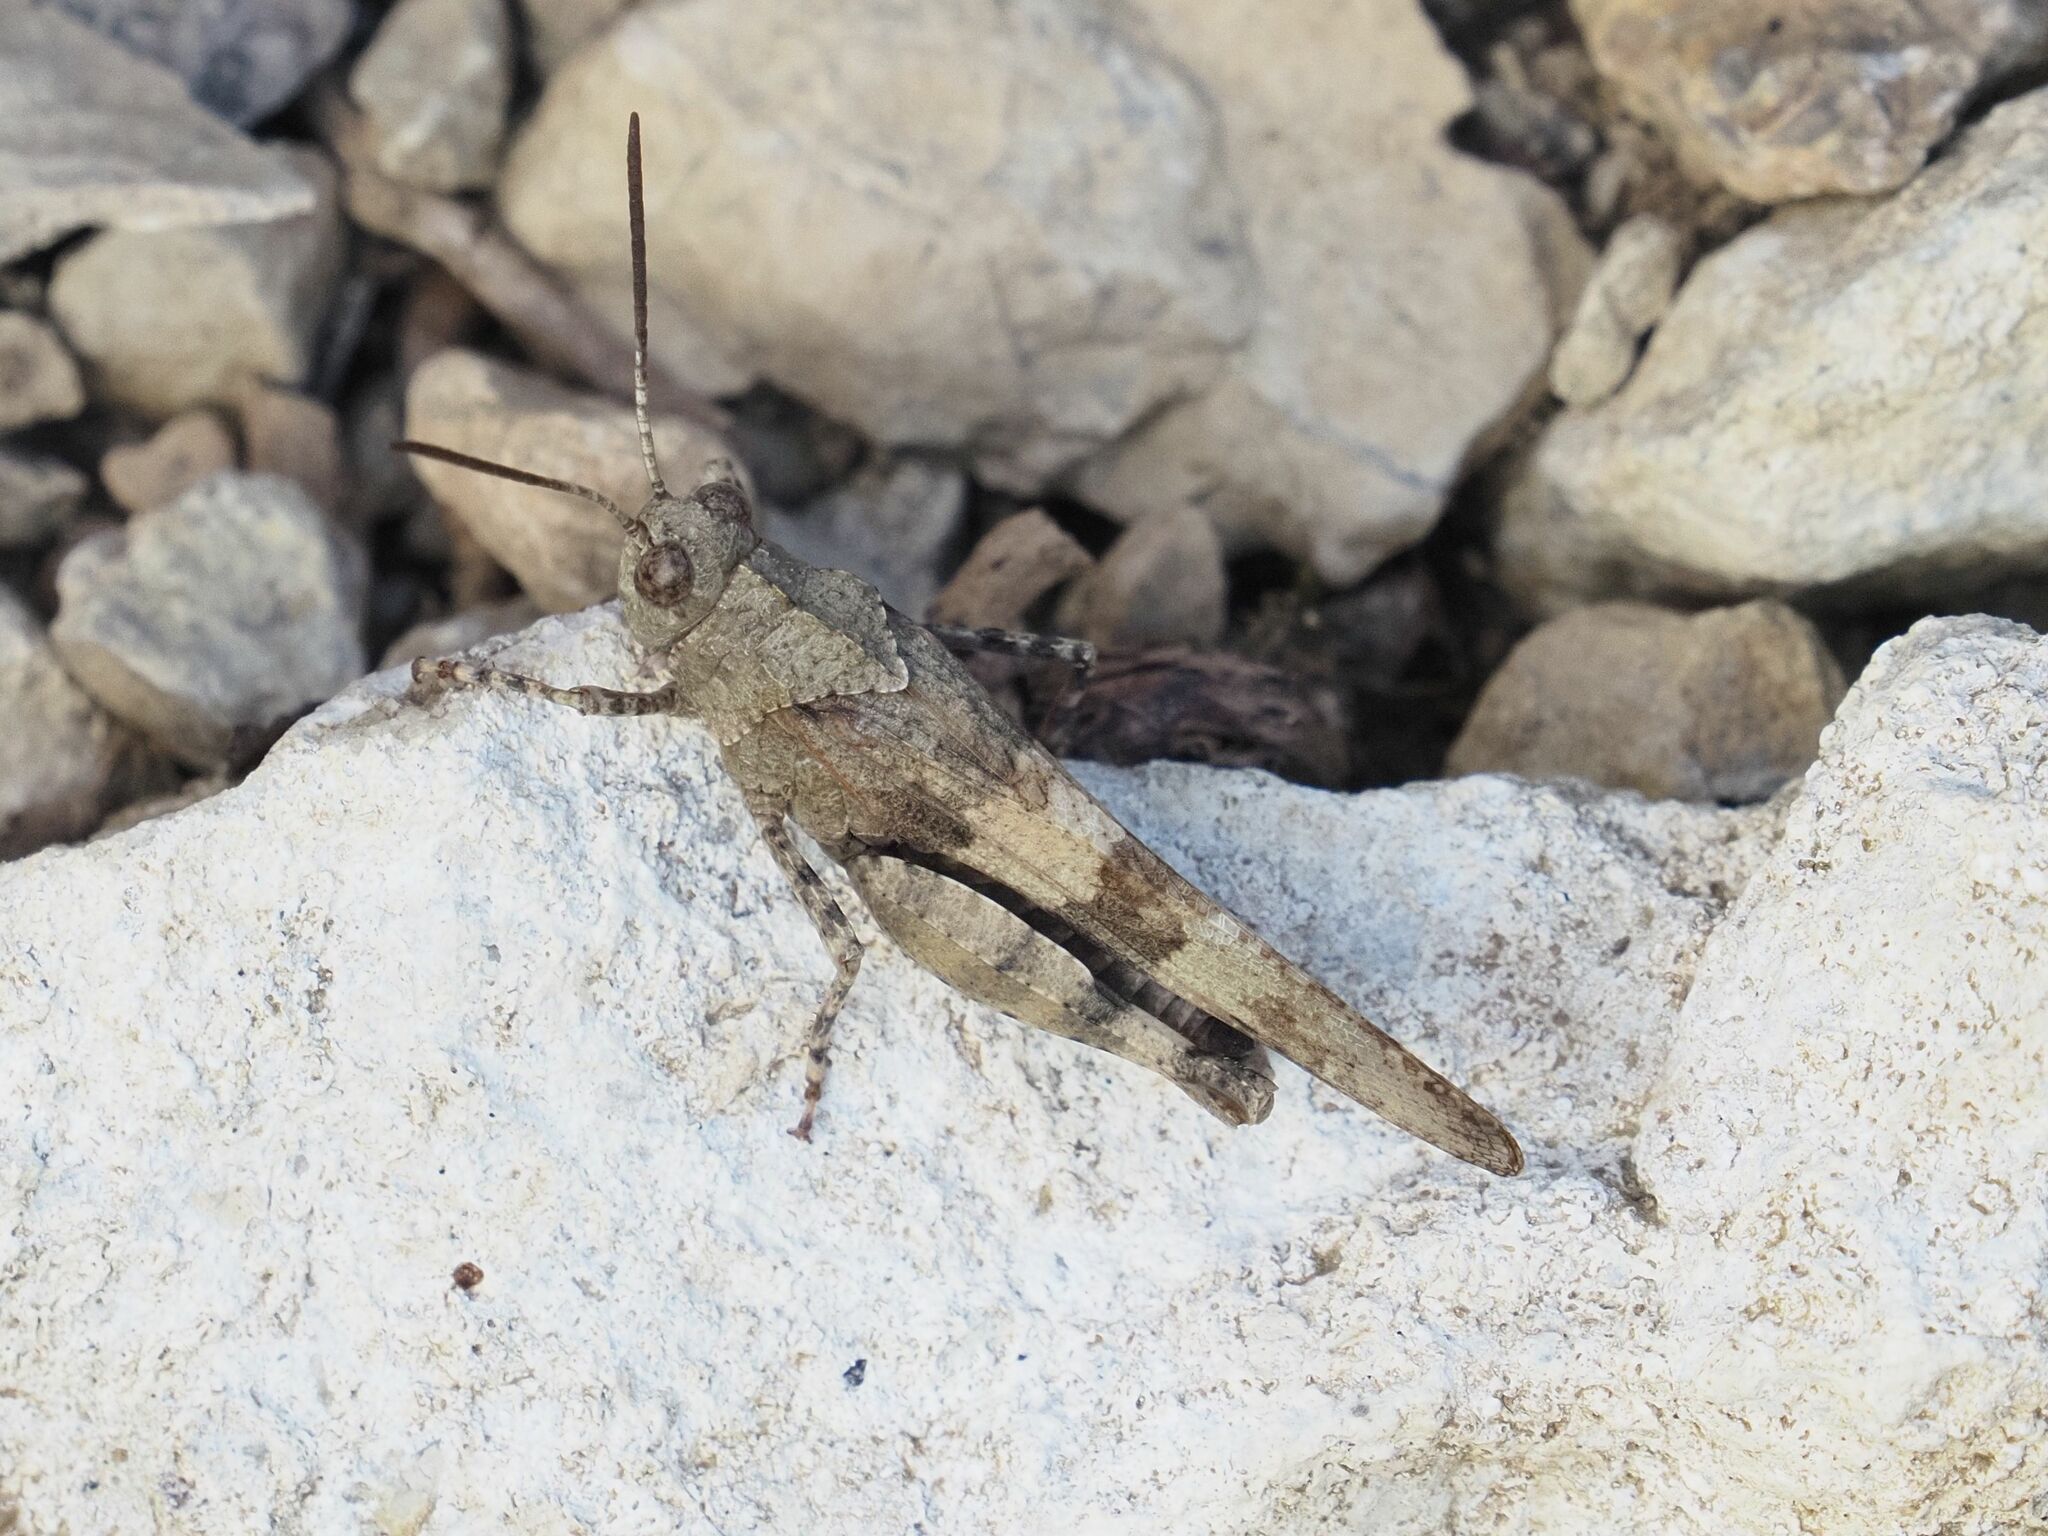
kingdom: Animalia
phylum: Arthropoda
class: Insecta
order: Orthoptera
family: Acrididae
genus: Oedipoda
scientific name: Oedipoda caerulescens
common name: Blue-winged grasshopper
